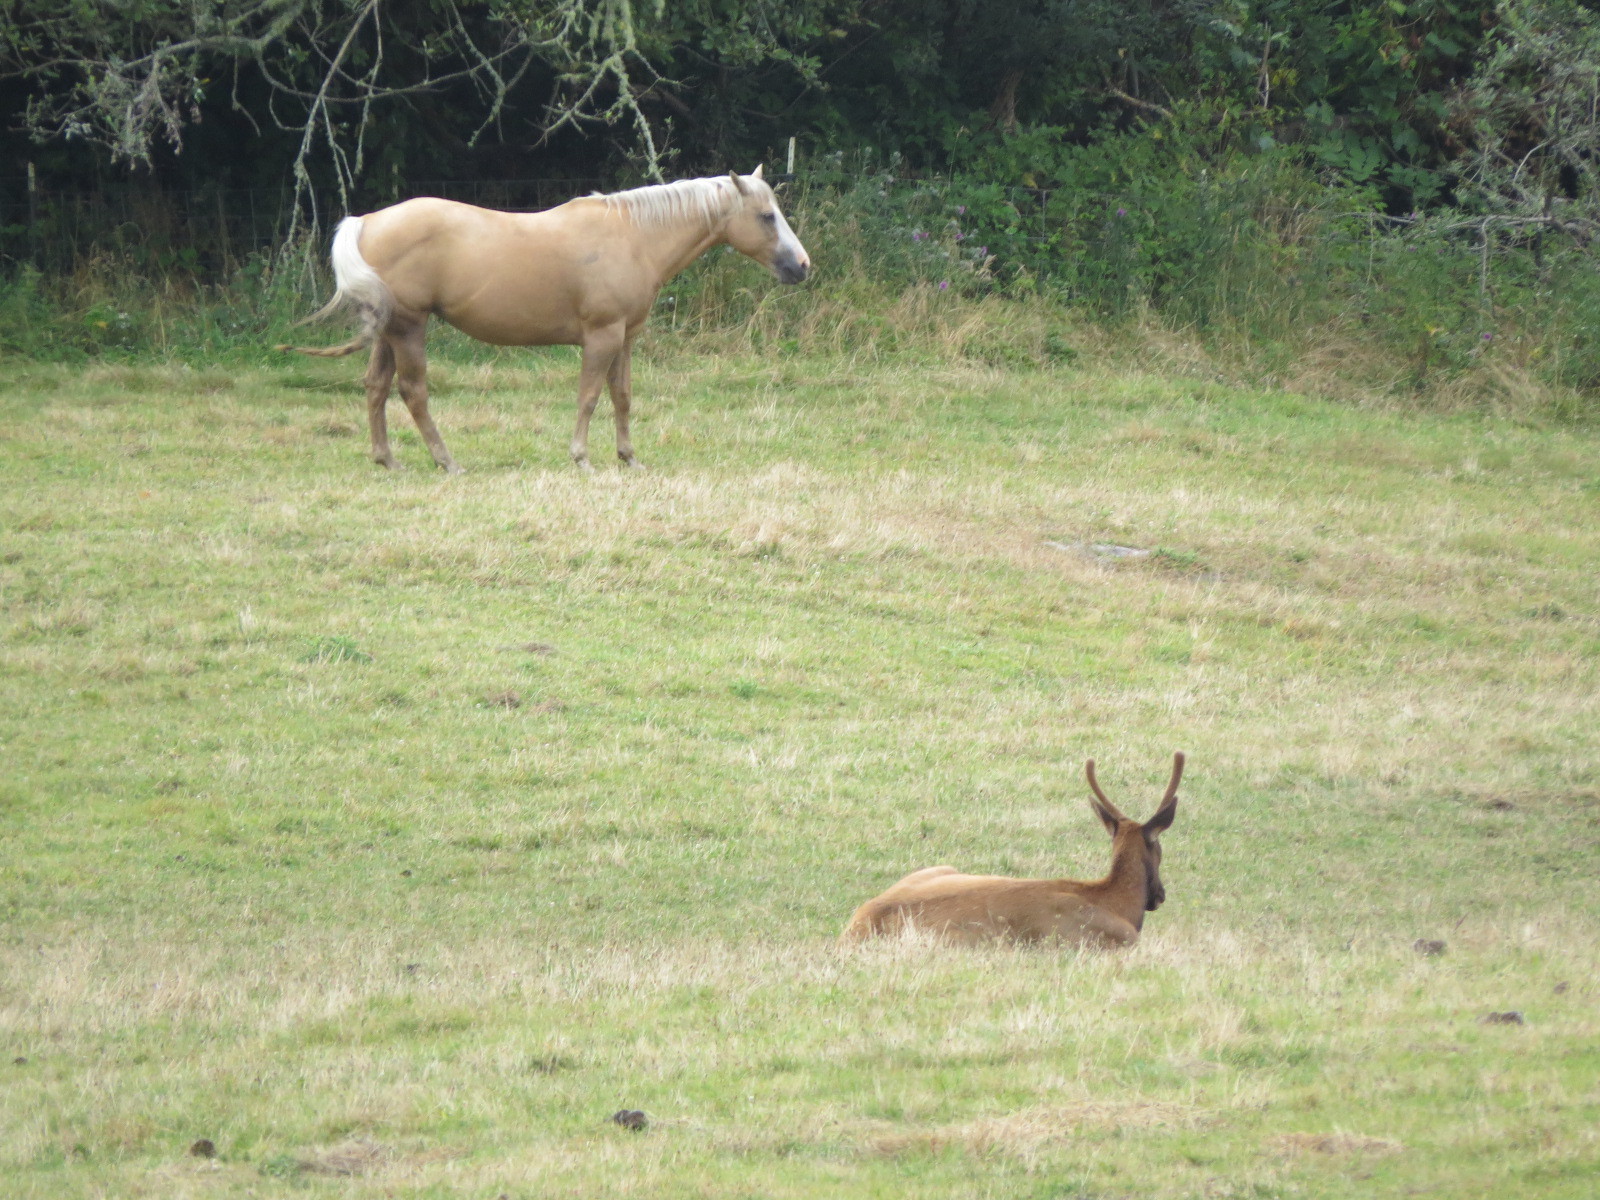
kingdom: Animalia
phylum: Chordata
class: Mammalia
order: Artiodactyla
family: Cervidae
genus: Cervus
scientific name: Cervus elaphus
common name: Red deer
